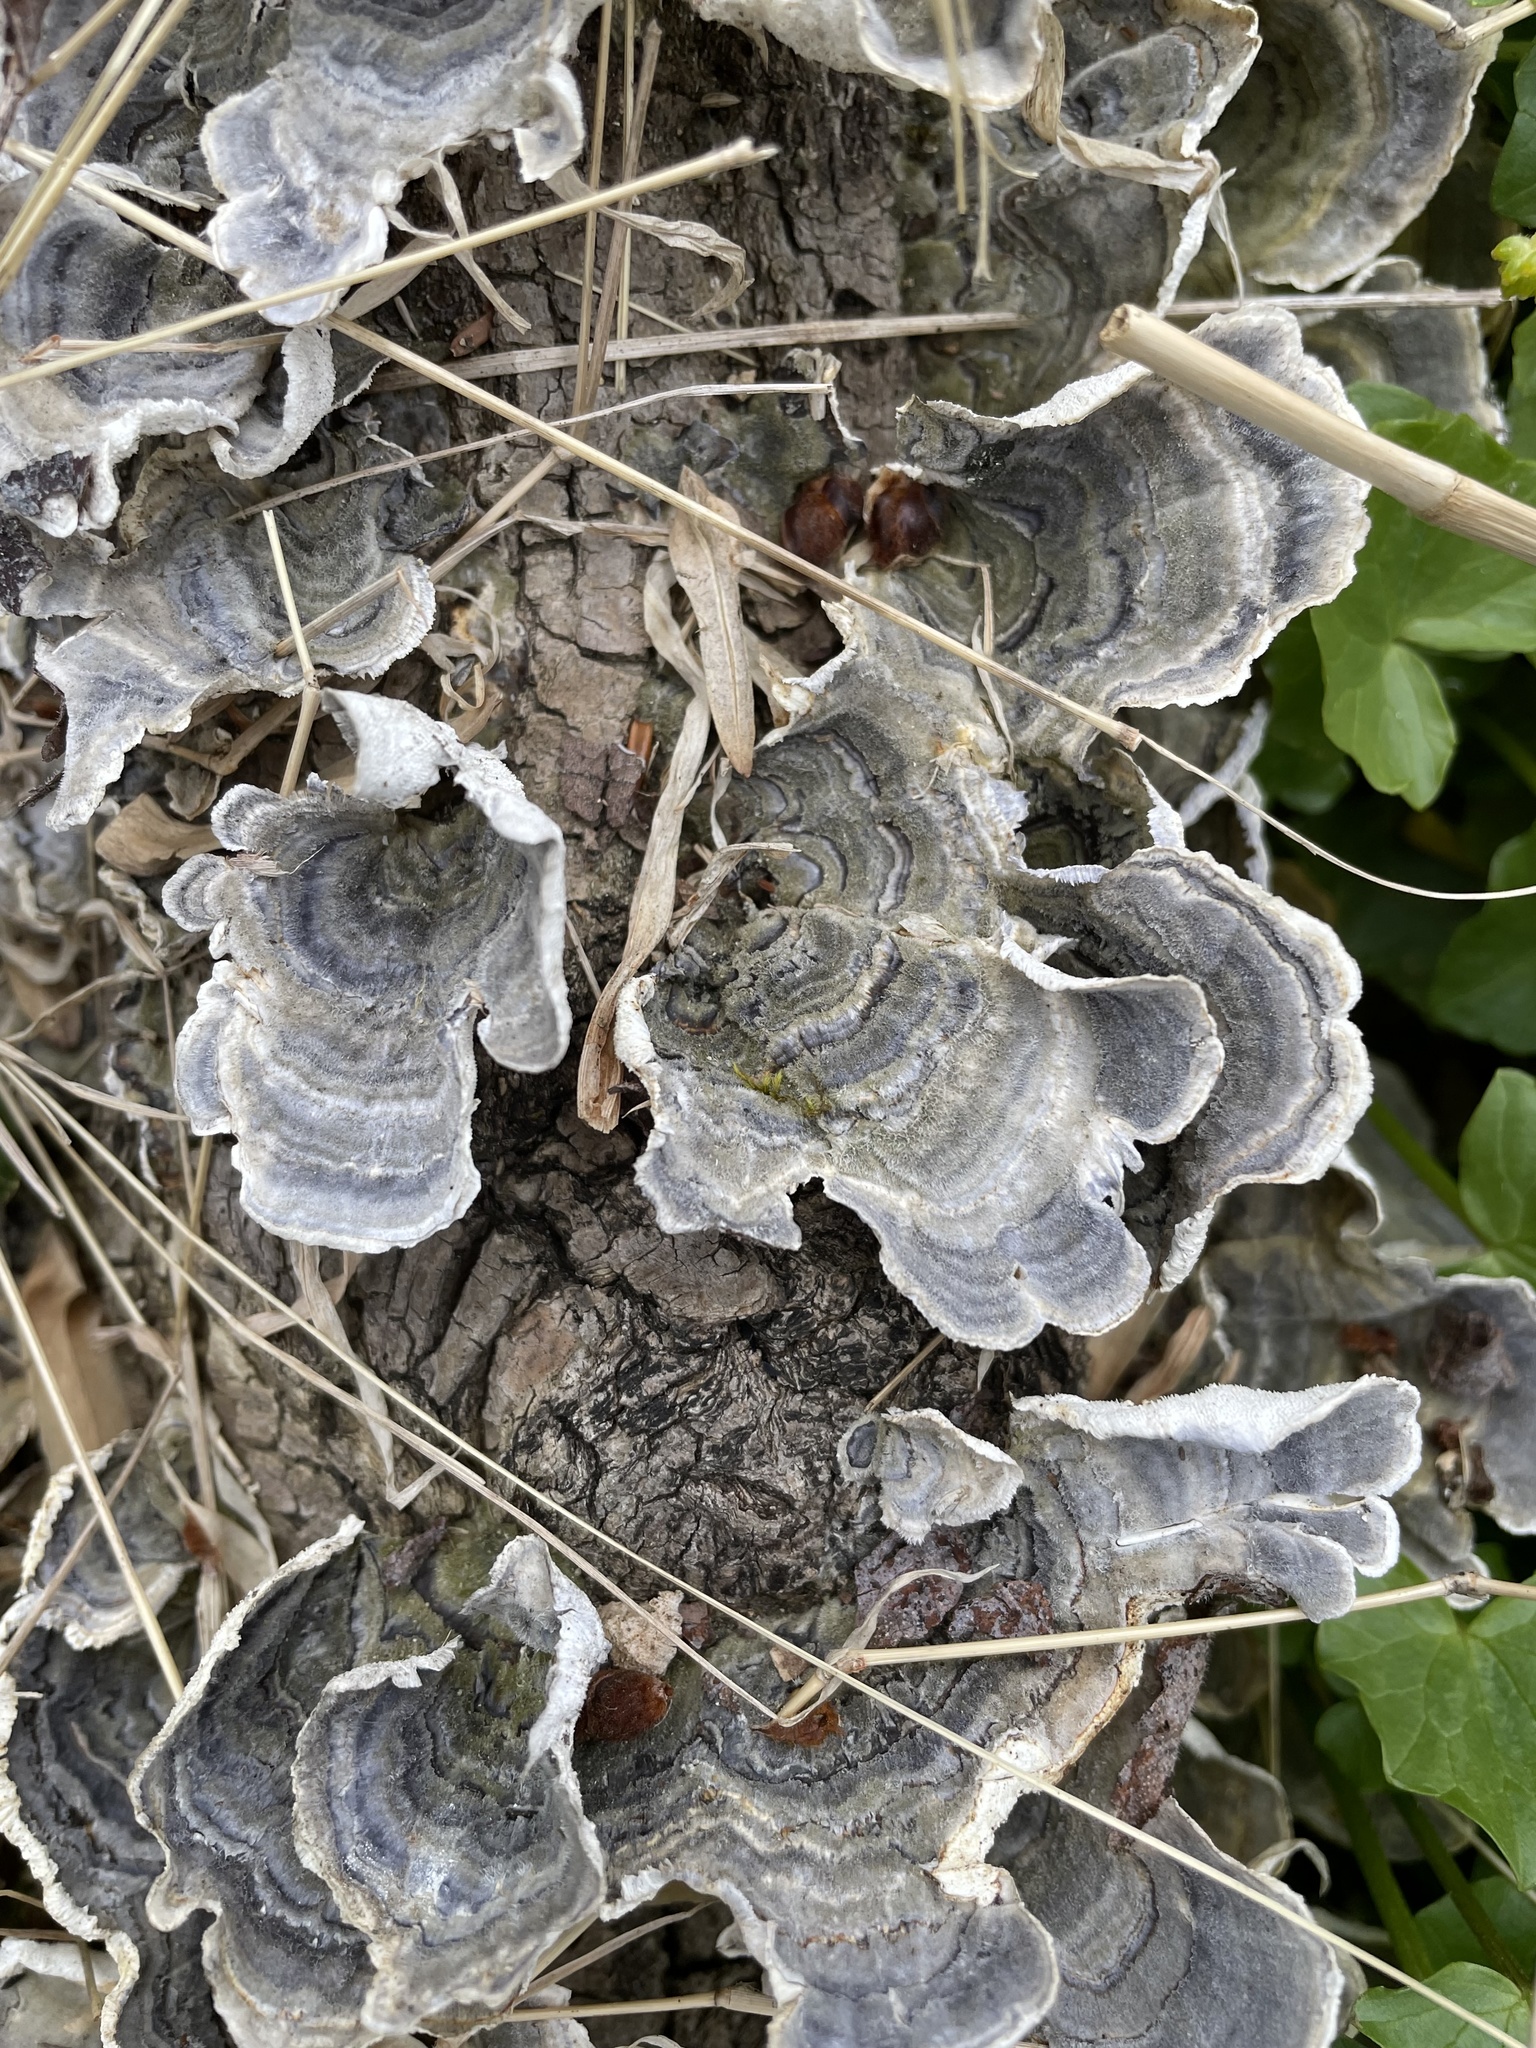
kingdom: Fungi
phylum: Basidiomycota
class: Agaricomycetes
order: Polyporales
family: Polyporaceae
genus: Trametes
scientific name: Trametes versicolor
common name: Turkeytail
